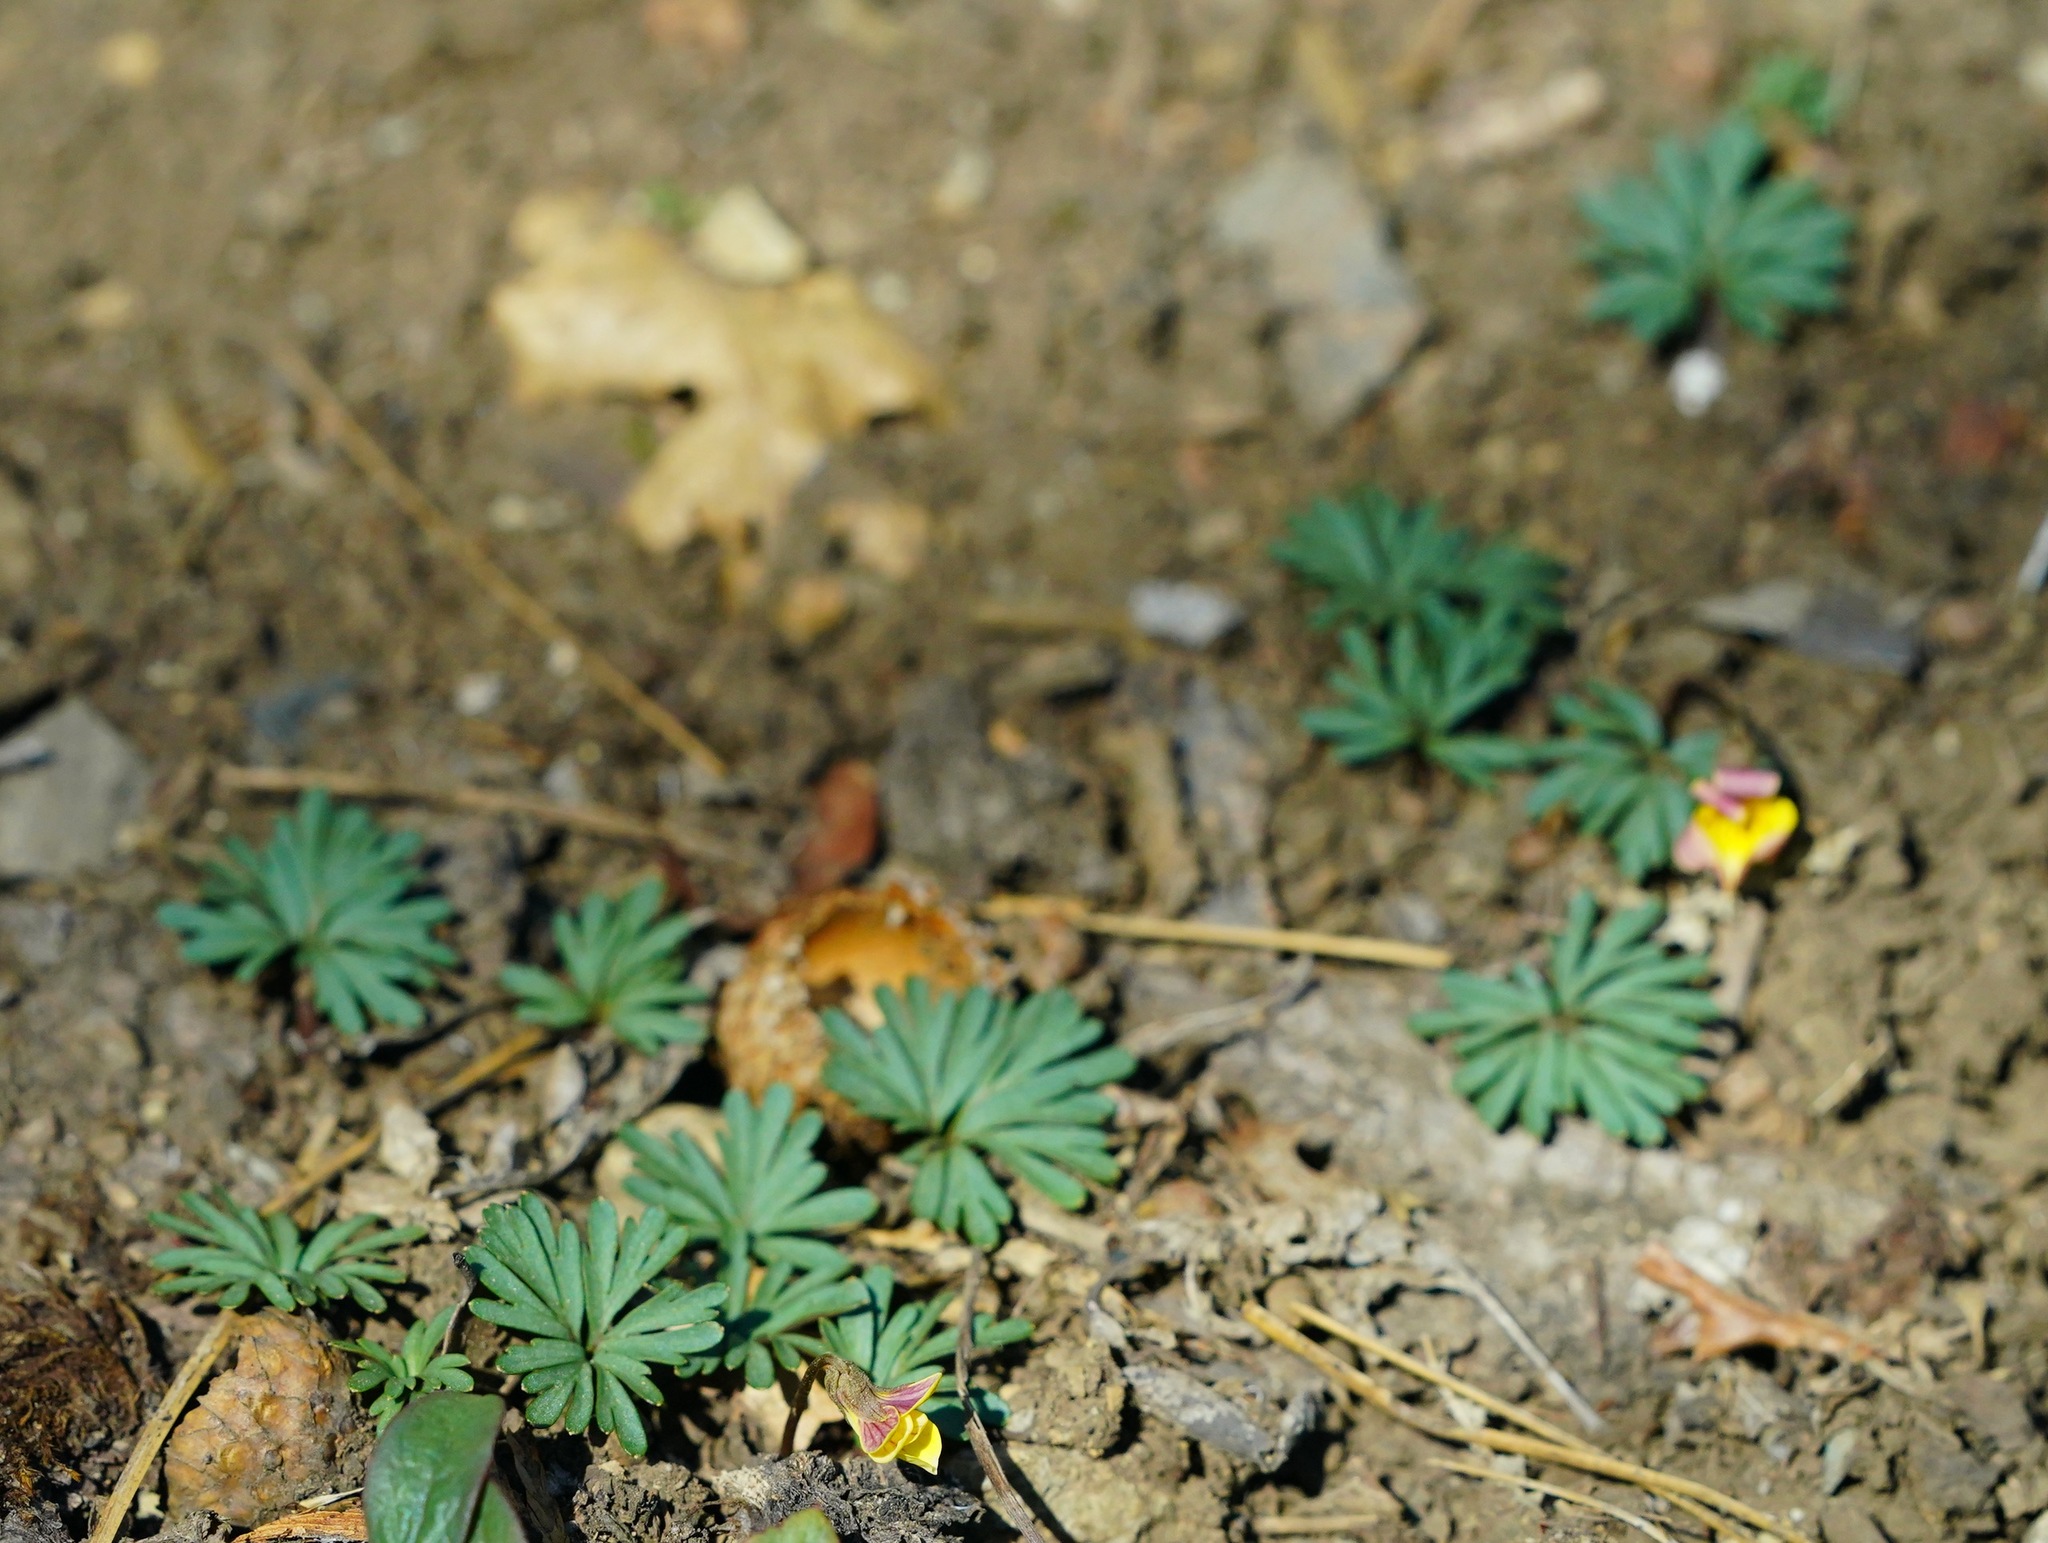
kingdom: Plantae
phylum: Tracheophyta
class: Magnoliopsida
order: Malpighiales
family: Violaceae
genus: Viola
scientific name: Viola sheltonii
